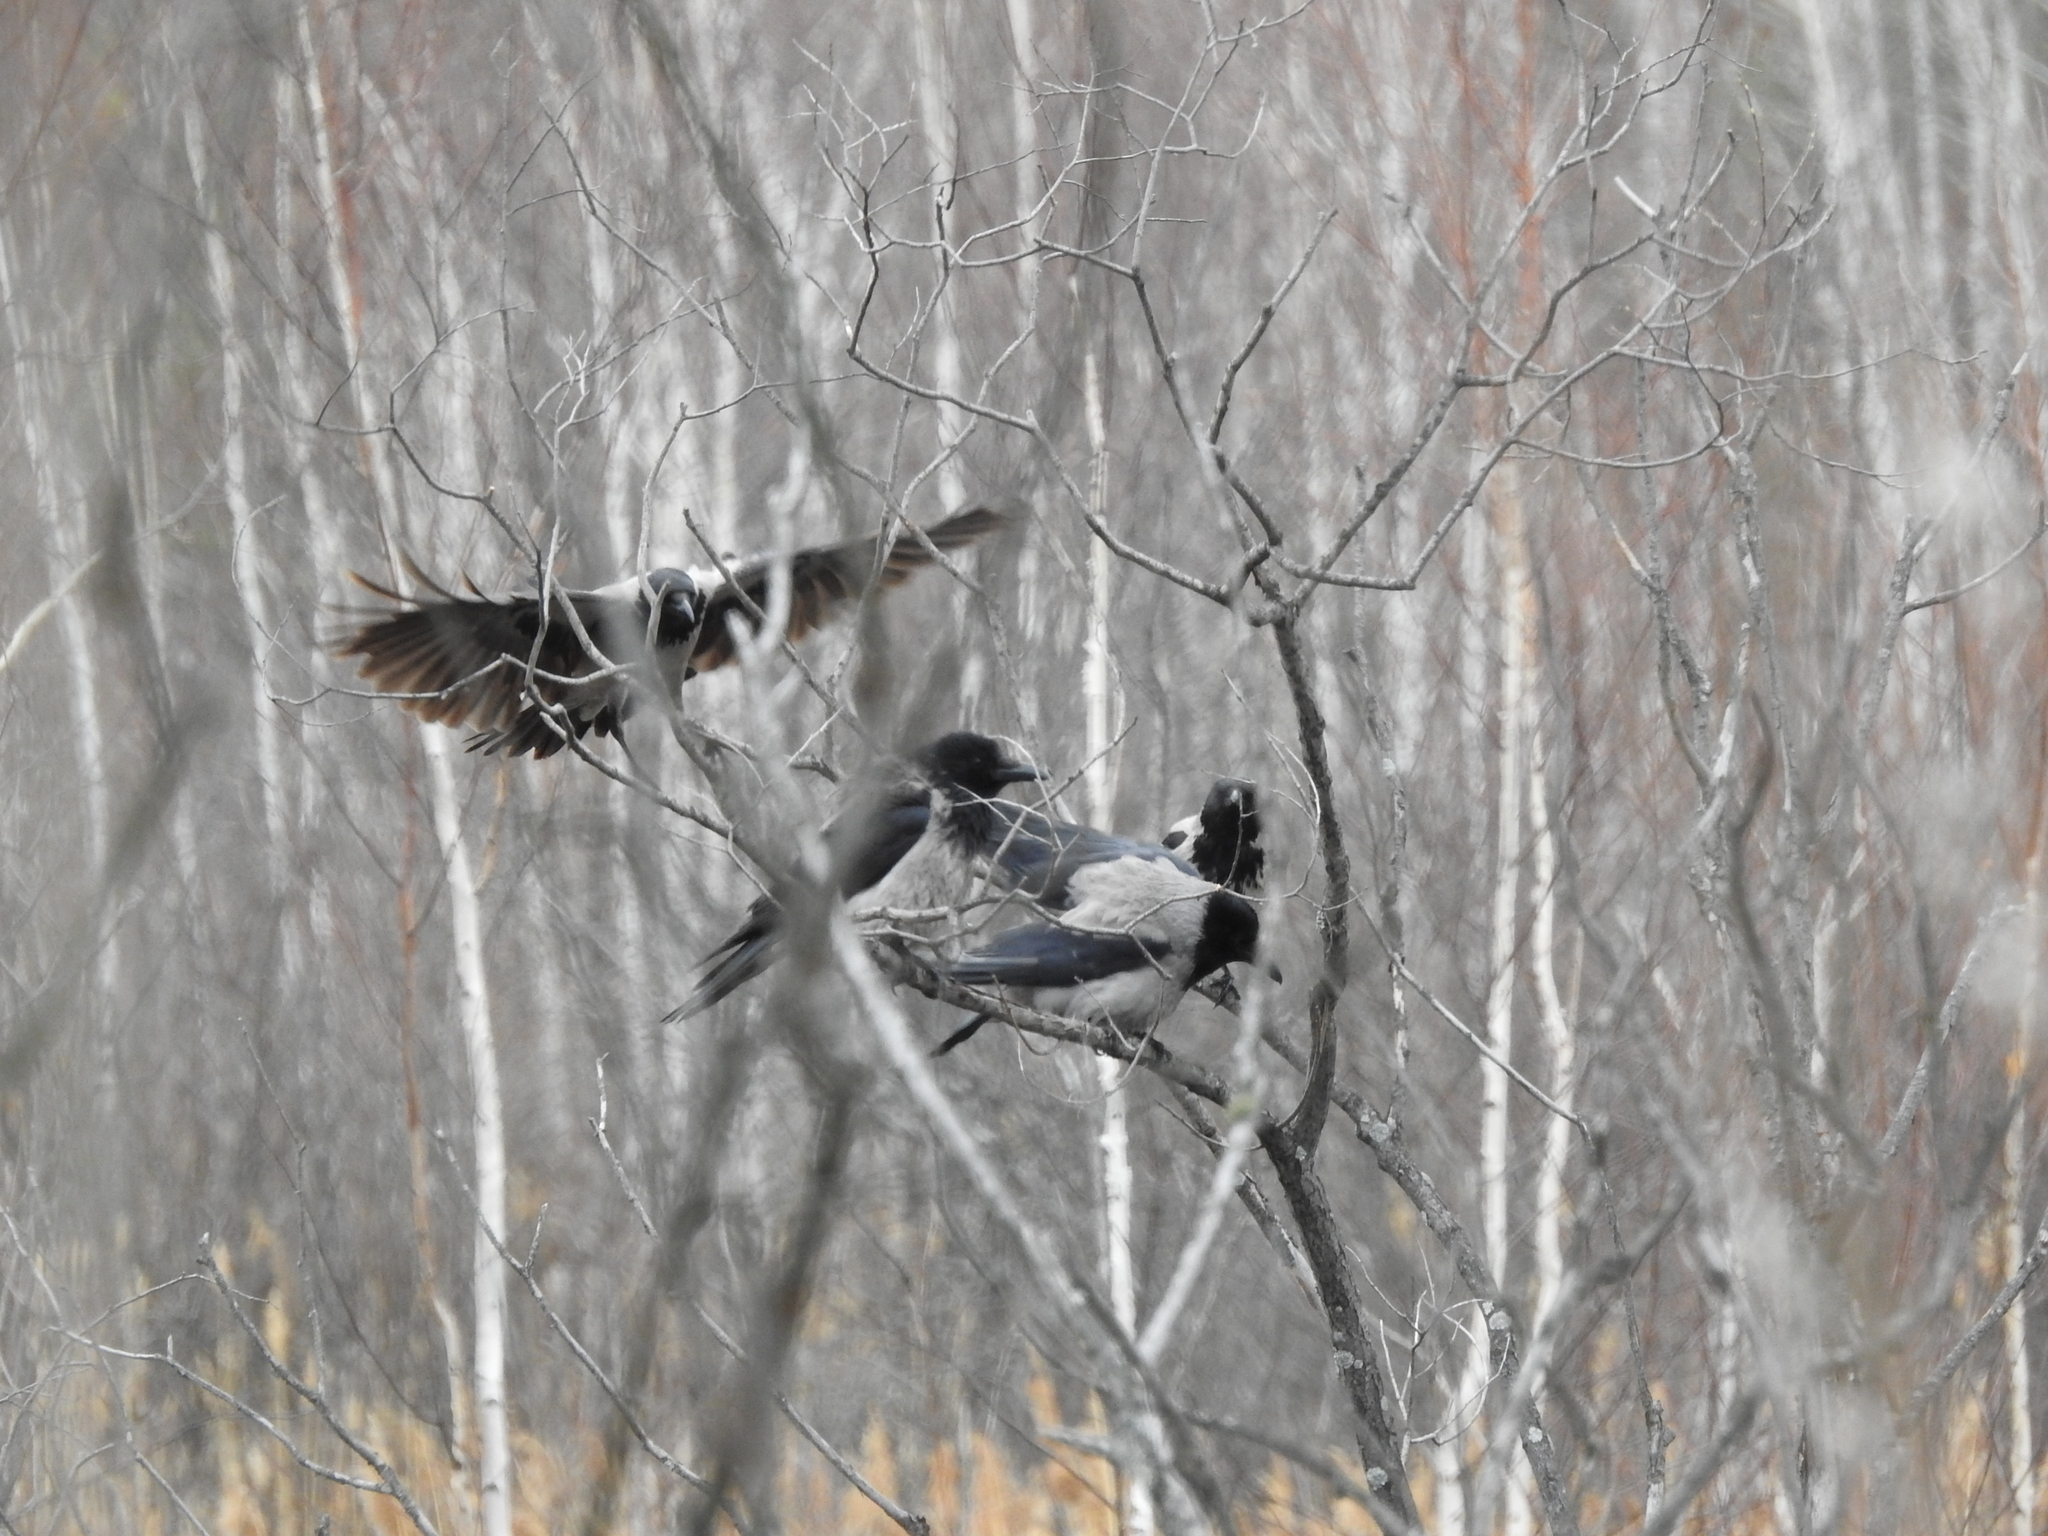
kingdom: Animalia
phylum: Chordata
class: Aves
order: Passeriformes
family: Corvidae
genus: Corvus
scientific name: Corvus cornix
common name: Hooded crow
